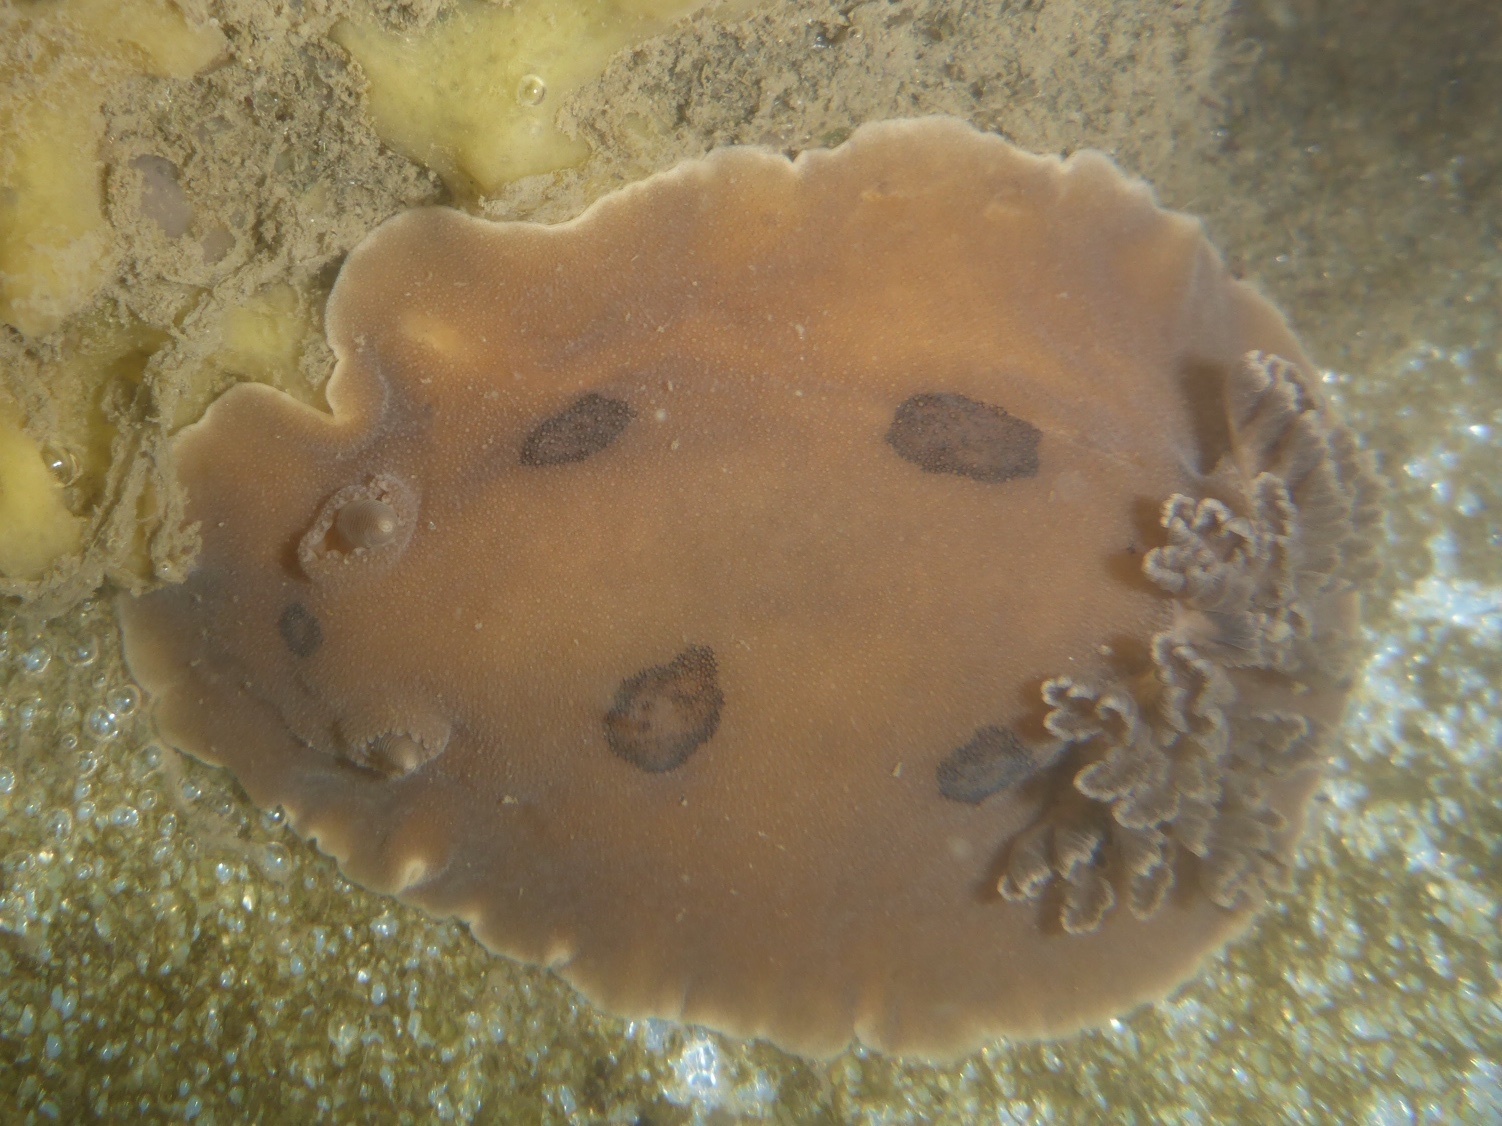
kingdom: Animalia
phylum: Mollusca
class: Gastropoda
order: Nudibranchia
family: Discodorididae
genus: Diaulula
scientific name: Diaulula sandiegensis
